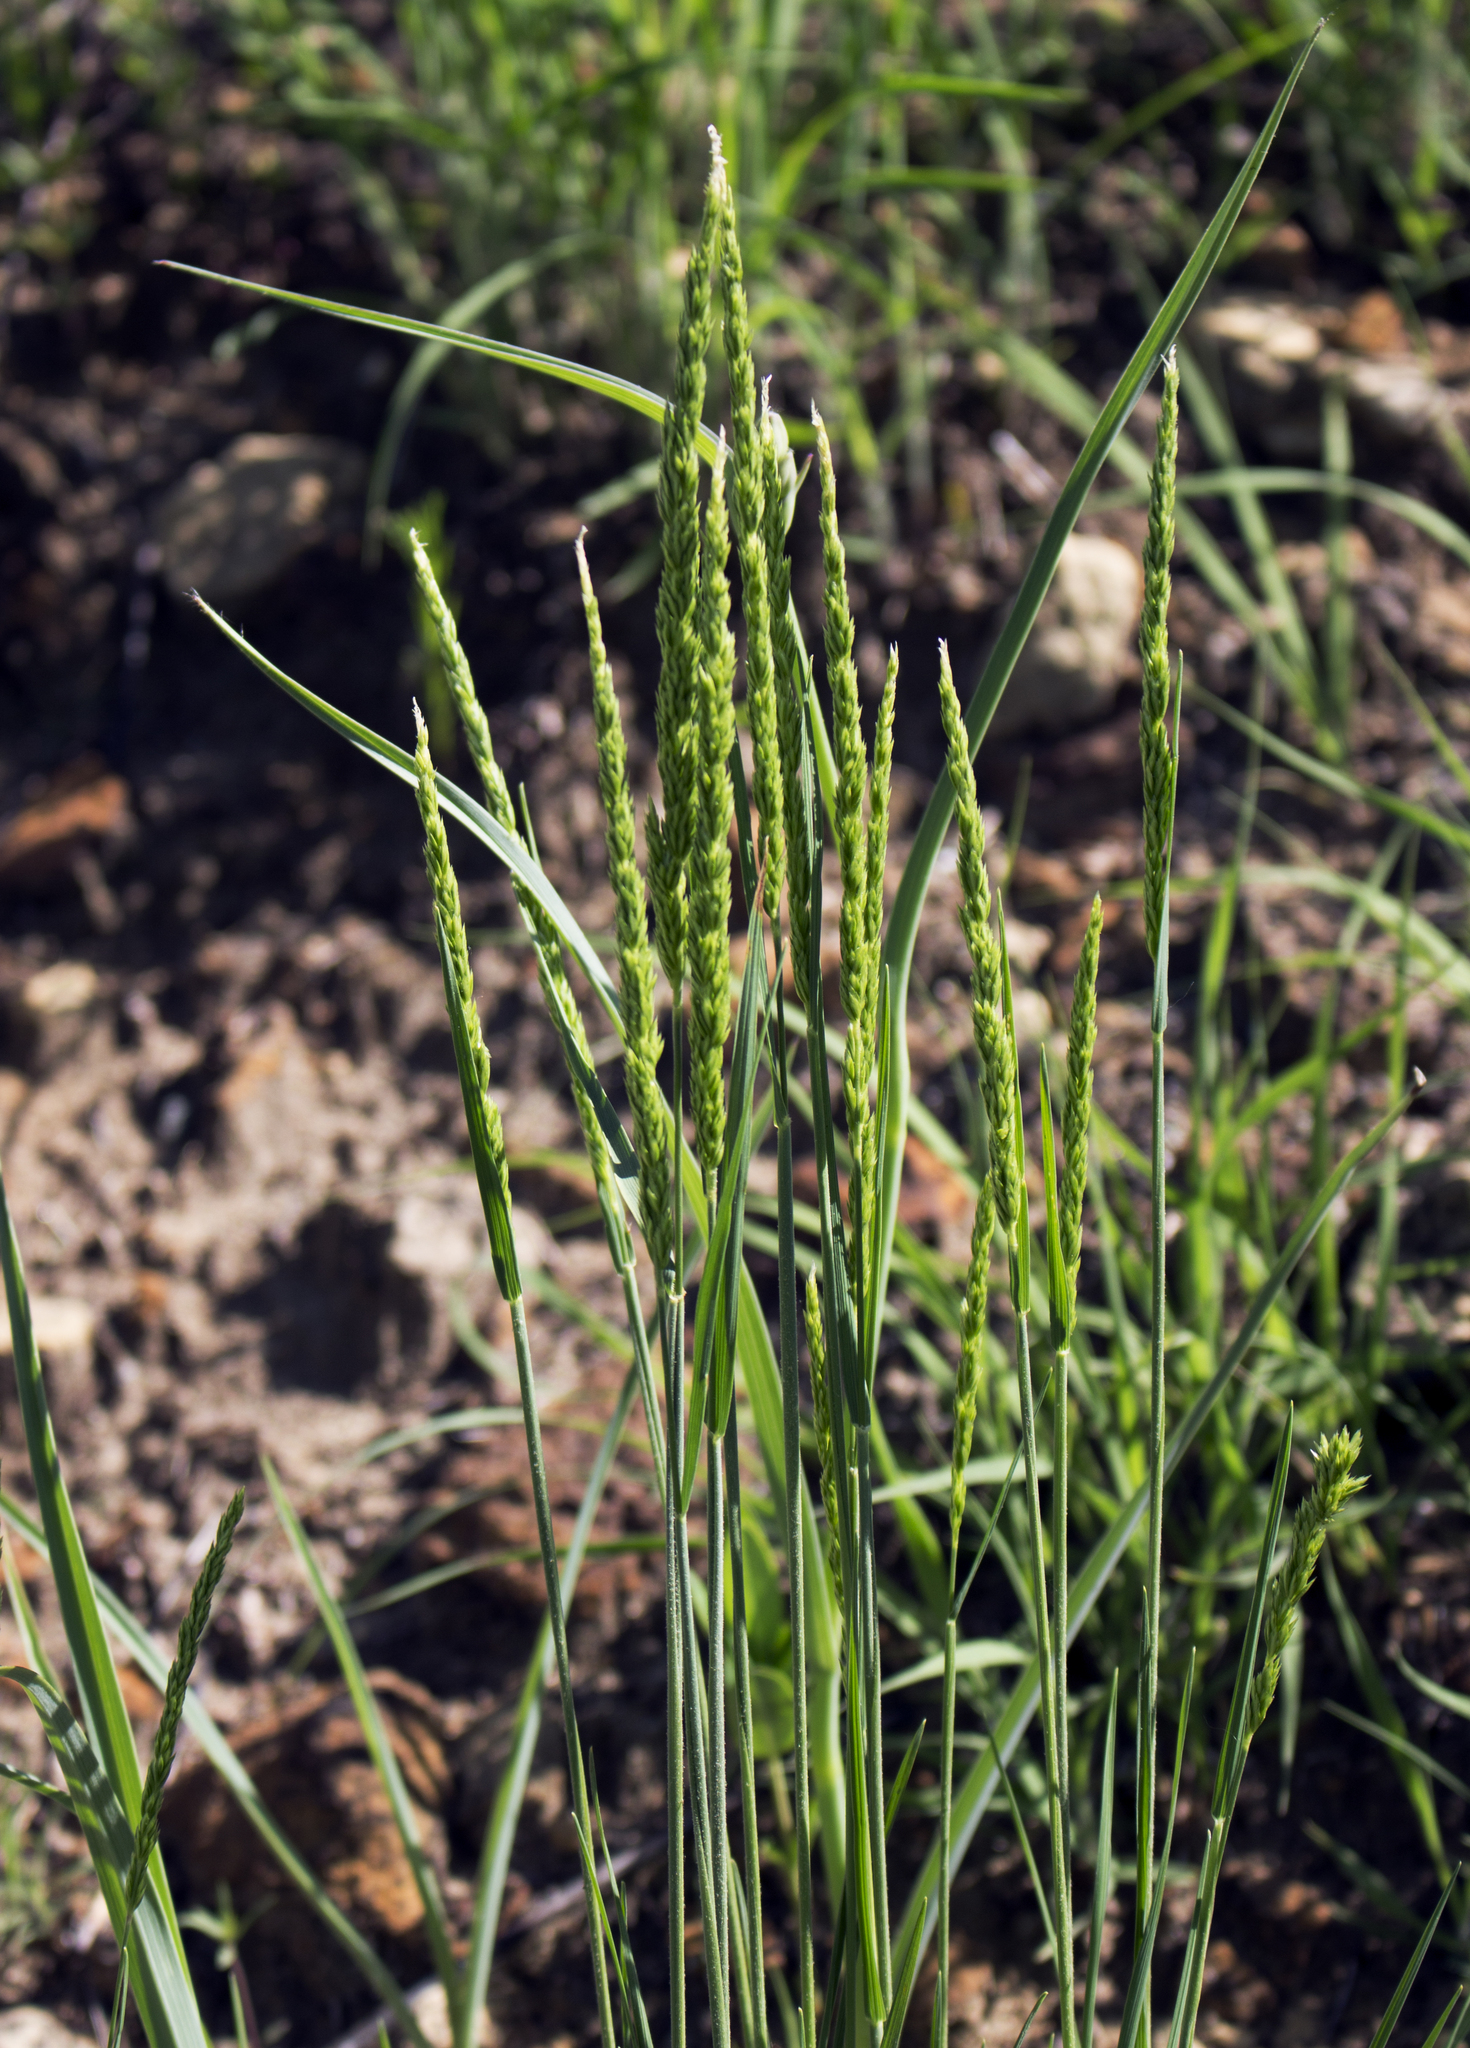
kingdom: Plantae
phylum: Tracheophyta
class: Liliopsida
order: Poales
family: Poaceae
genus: Koeleria
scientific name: Koeleria macrantha
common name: Crested hair-grass
